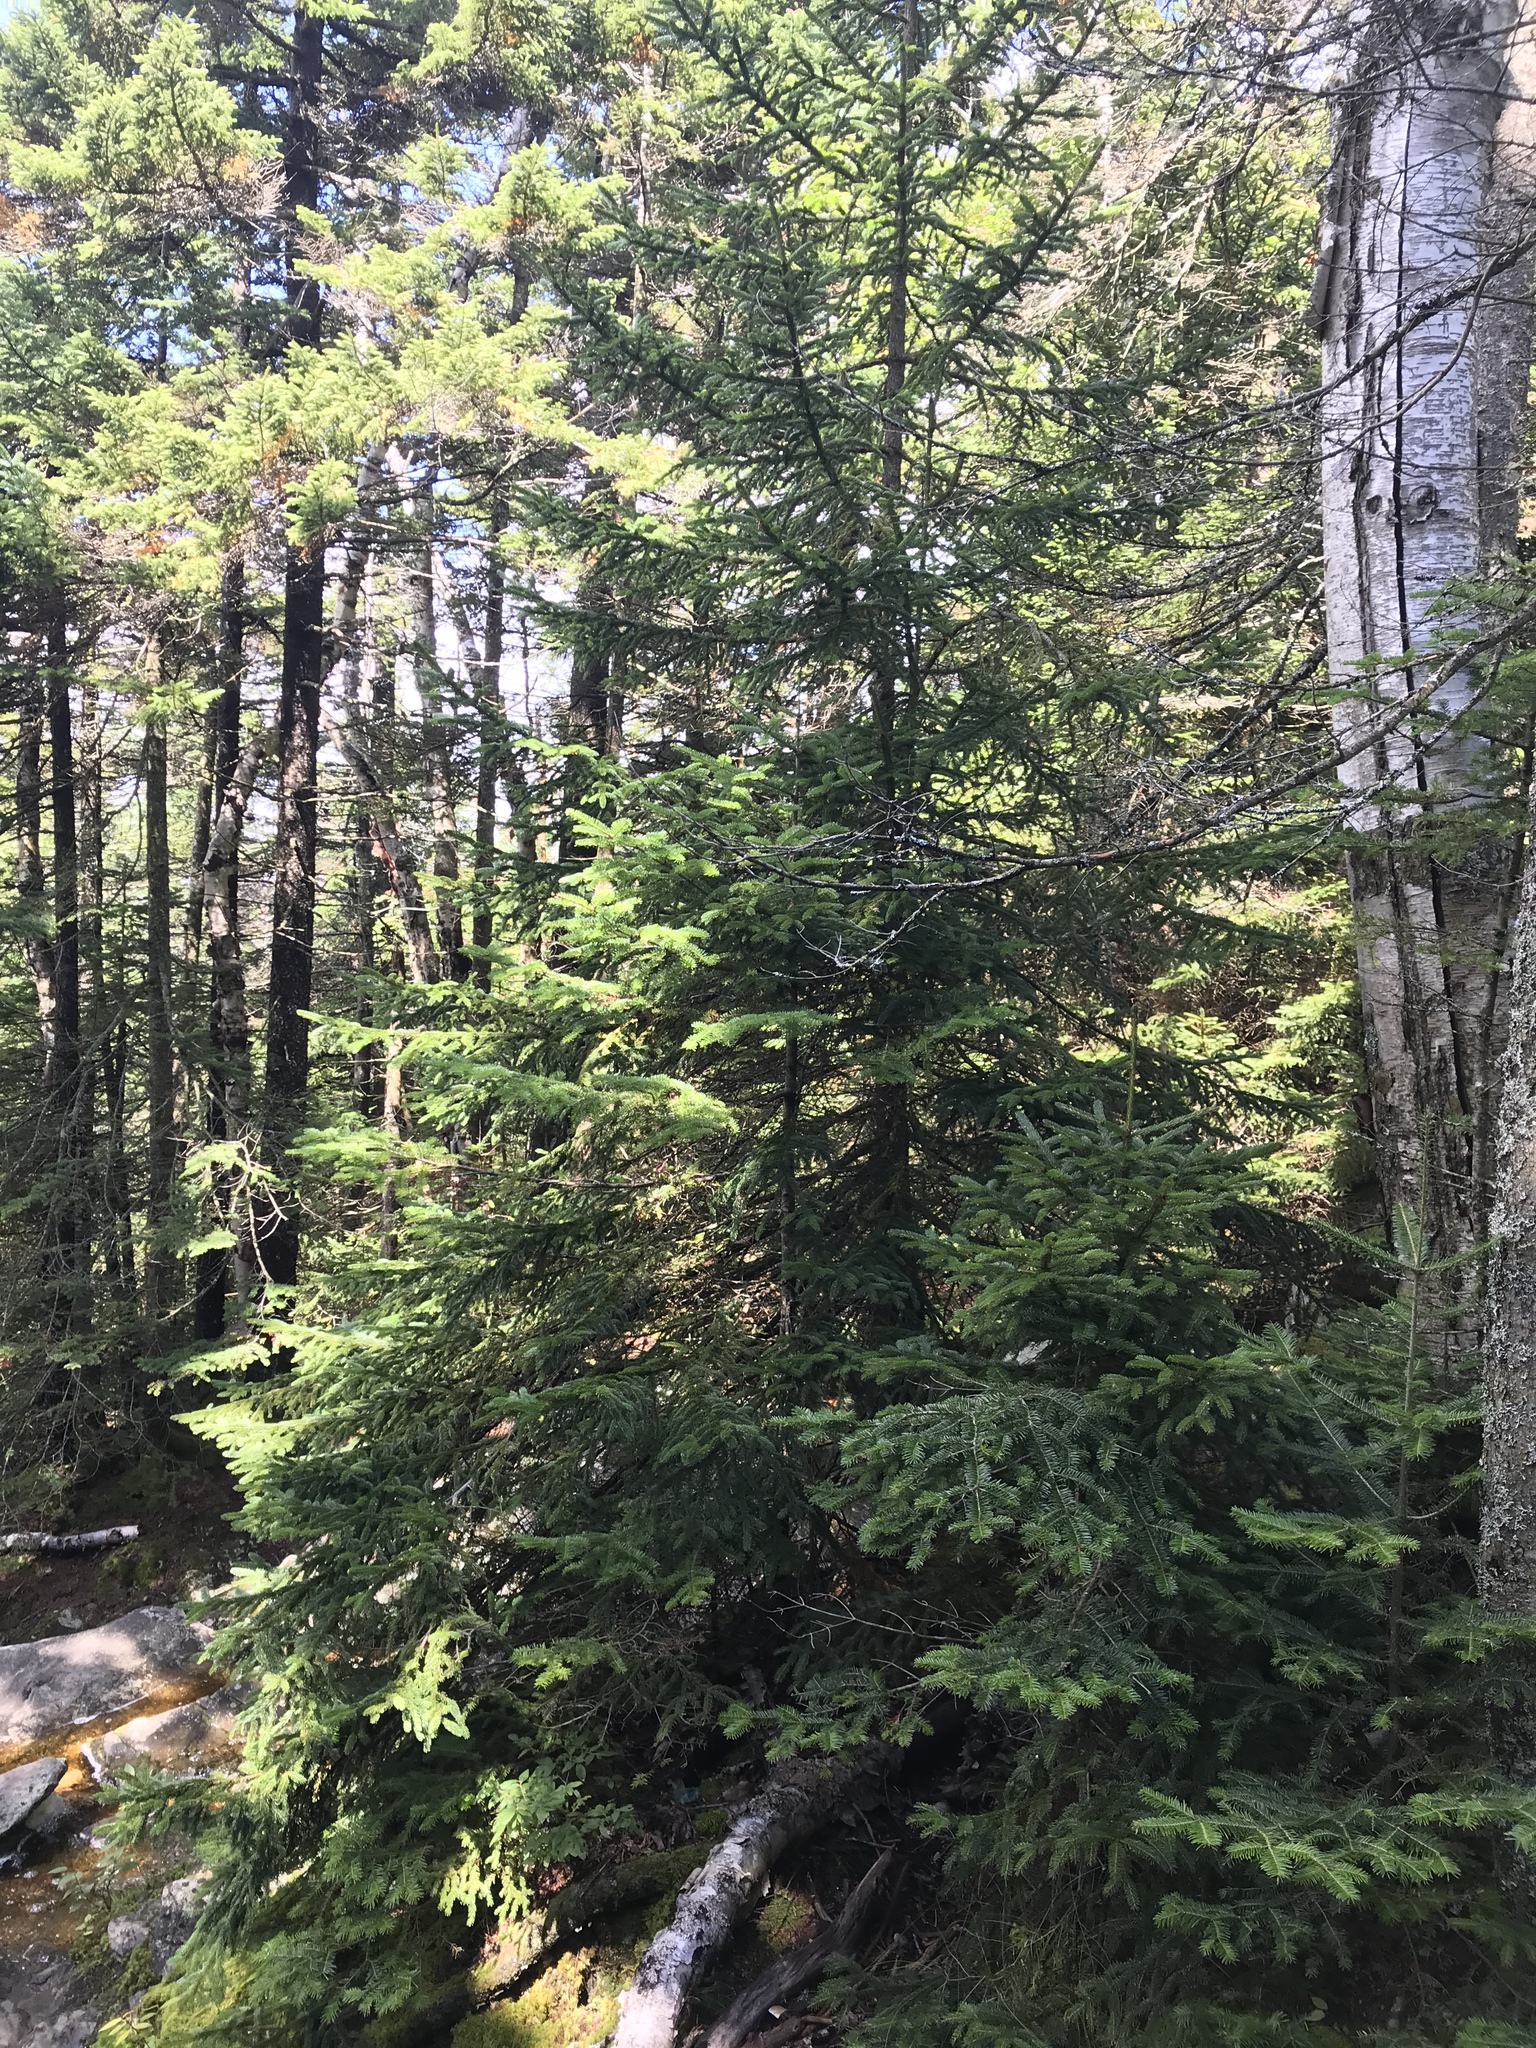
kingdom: Plantae
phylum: Tracheophyta
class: Pinopsida
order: Pinales
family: Pinaceae
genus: Abies
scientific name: Abies balsamea
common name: Balsam fir
